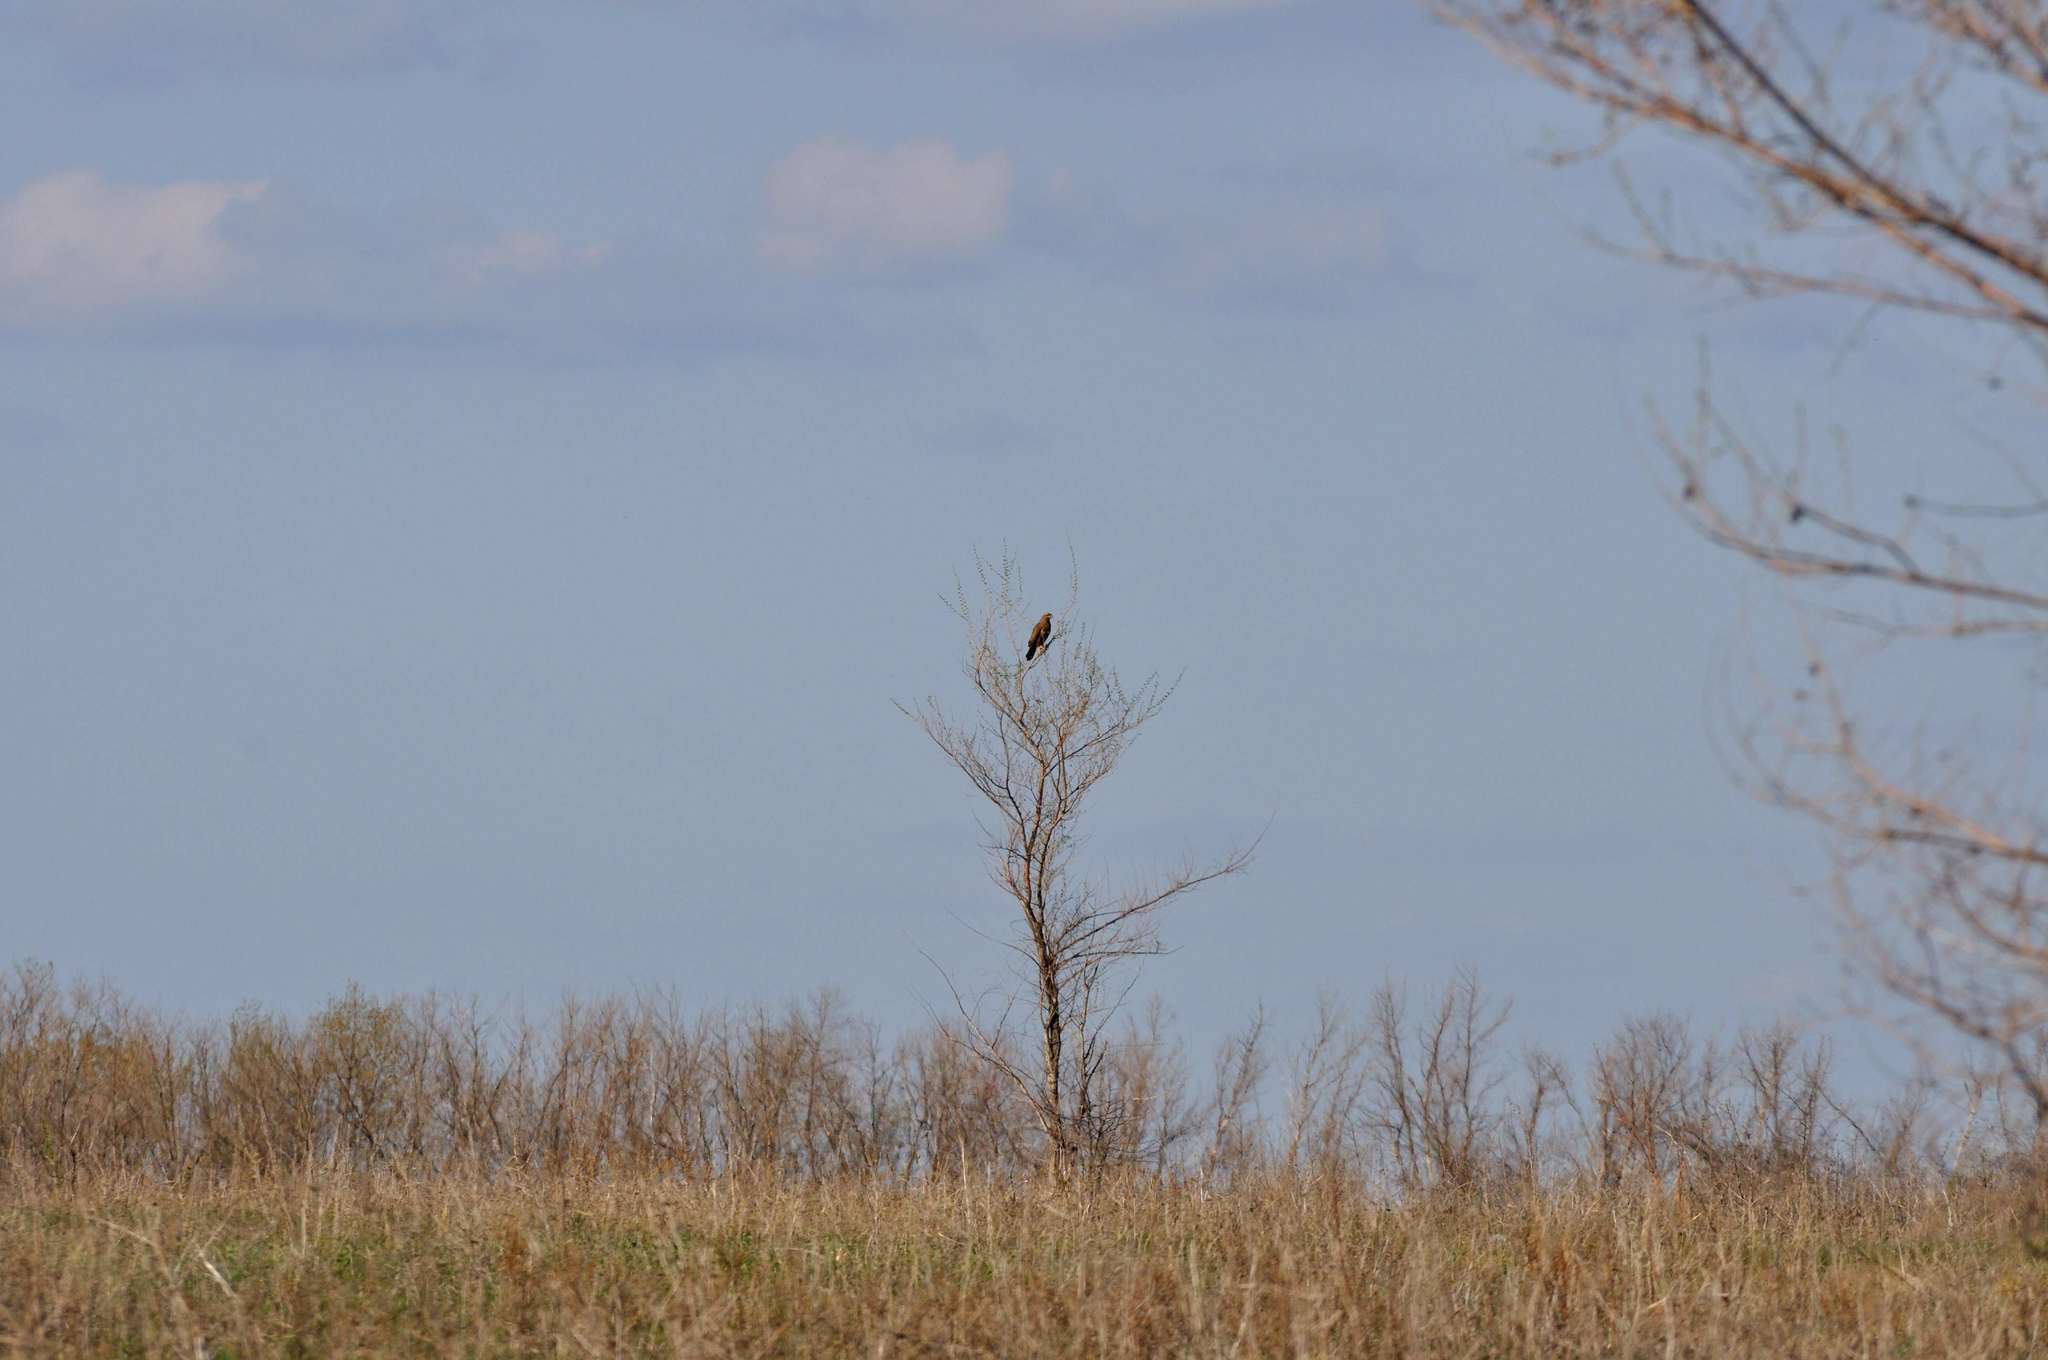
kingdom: Animalia
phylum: Chordata
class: Aves
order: Accipitriformes
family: Accipitridae
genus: Buteo
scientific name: Buteo buteo
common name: Common buzzard
